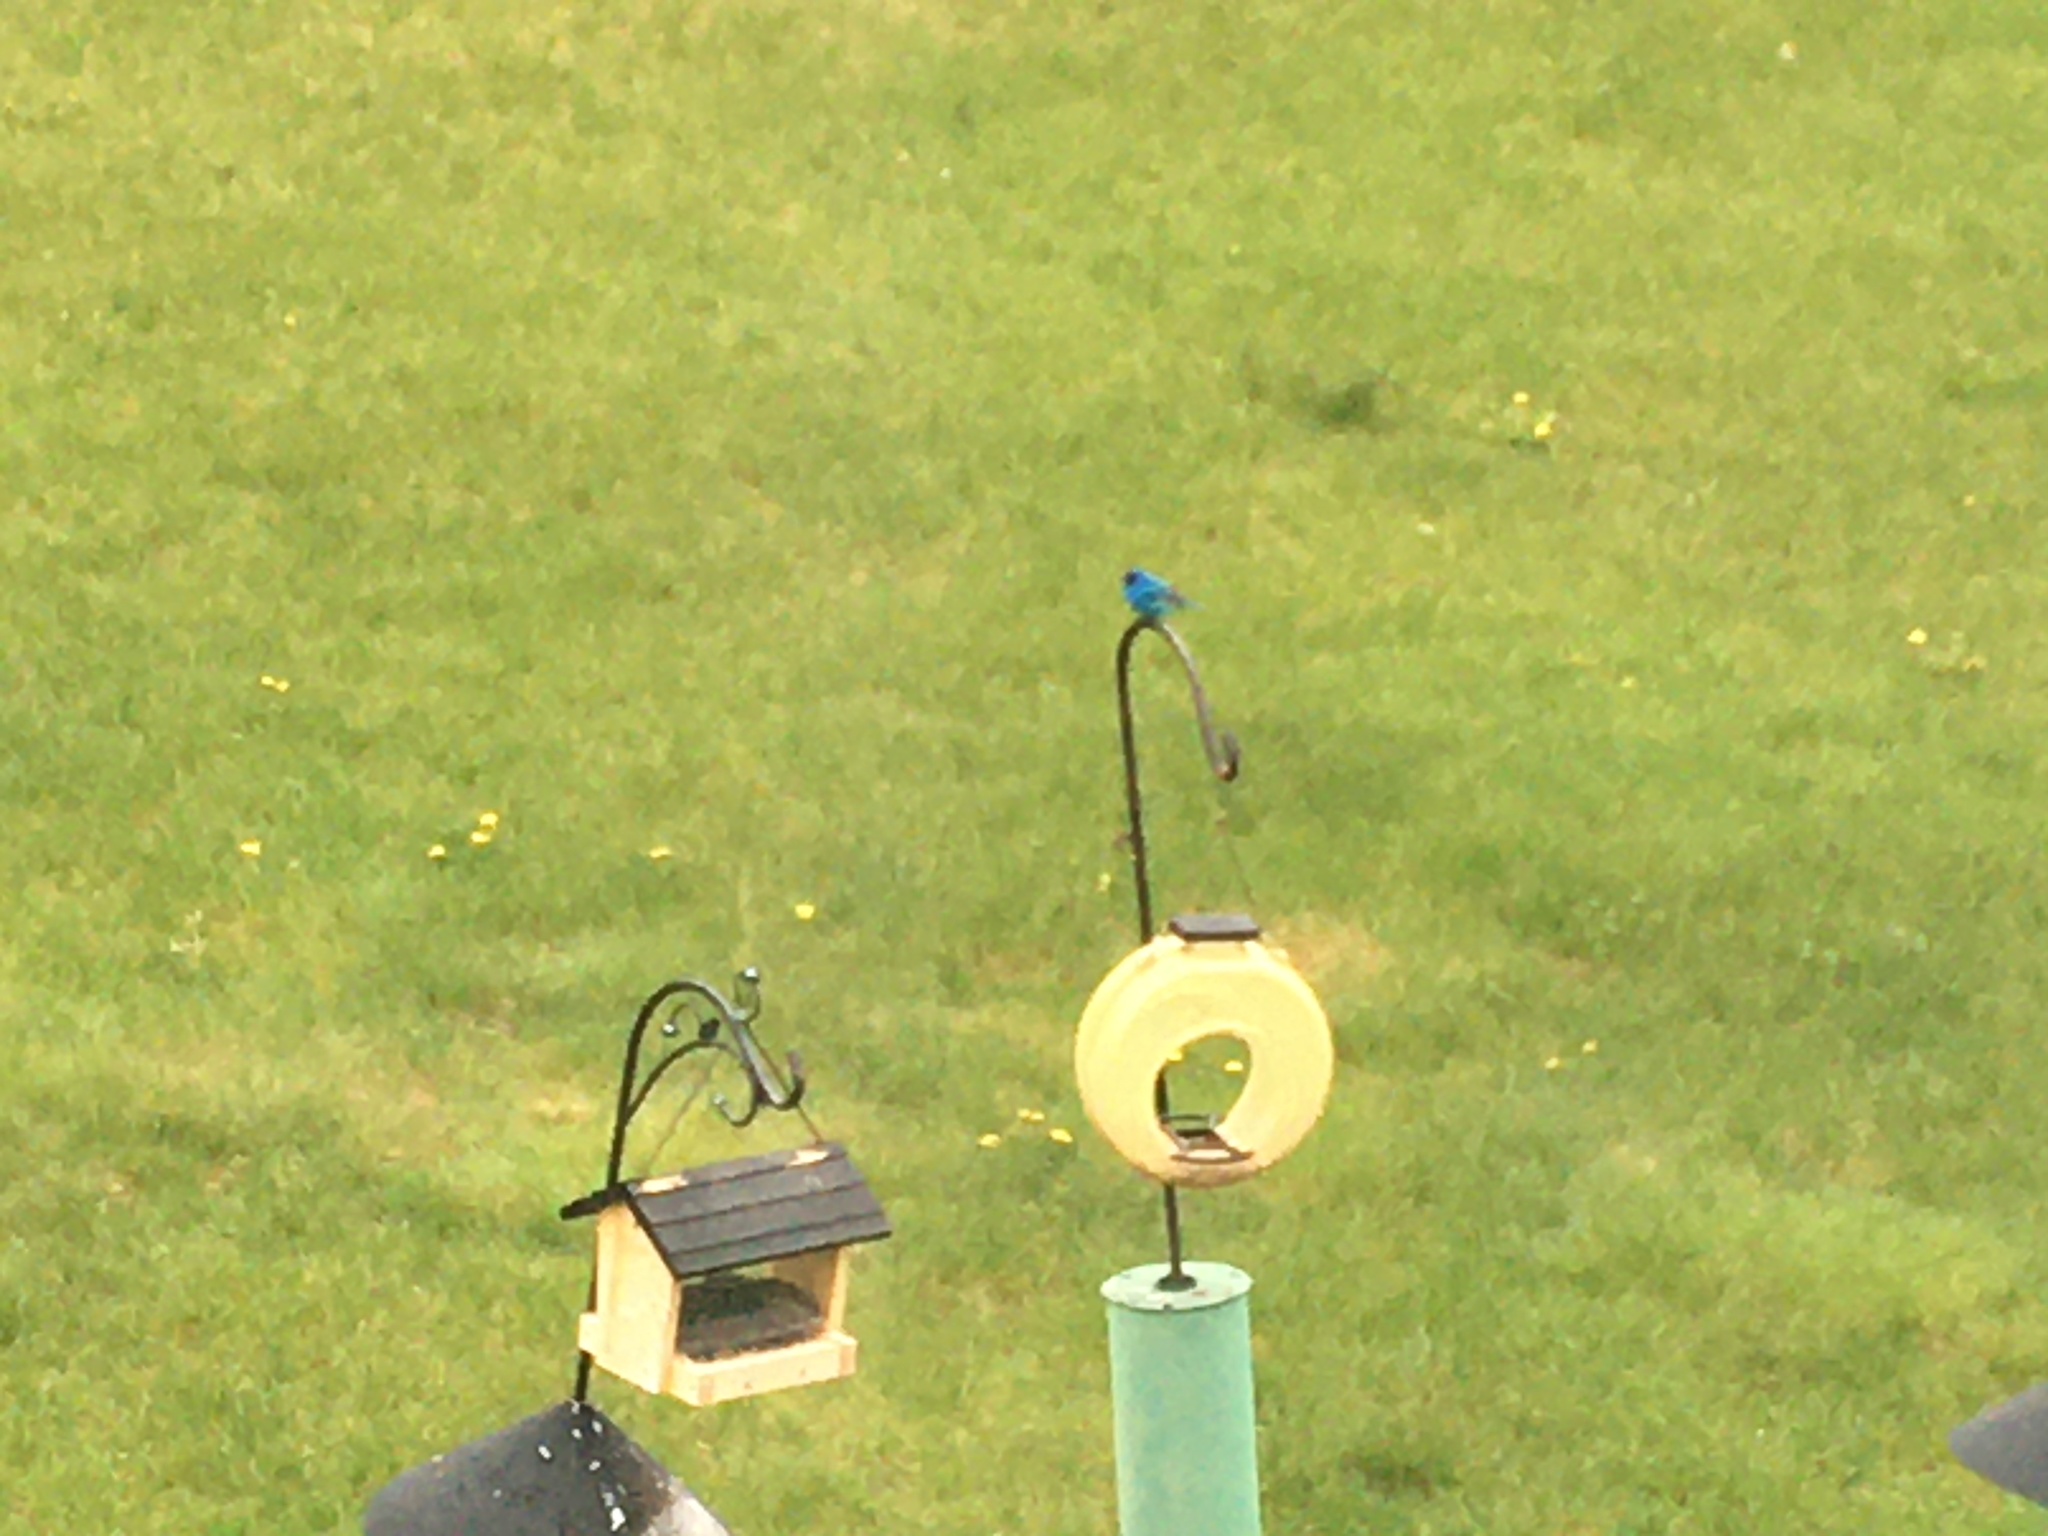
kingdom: Animalia
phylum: Chordata
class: Aves
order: Passeriformes
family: Cardinalidae
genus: Passerina
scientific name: Passerina cyanea
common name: Indigo bunting
